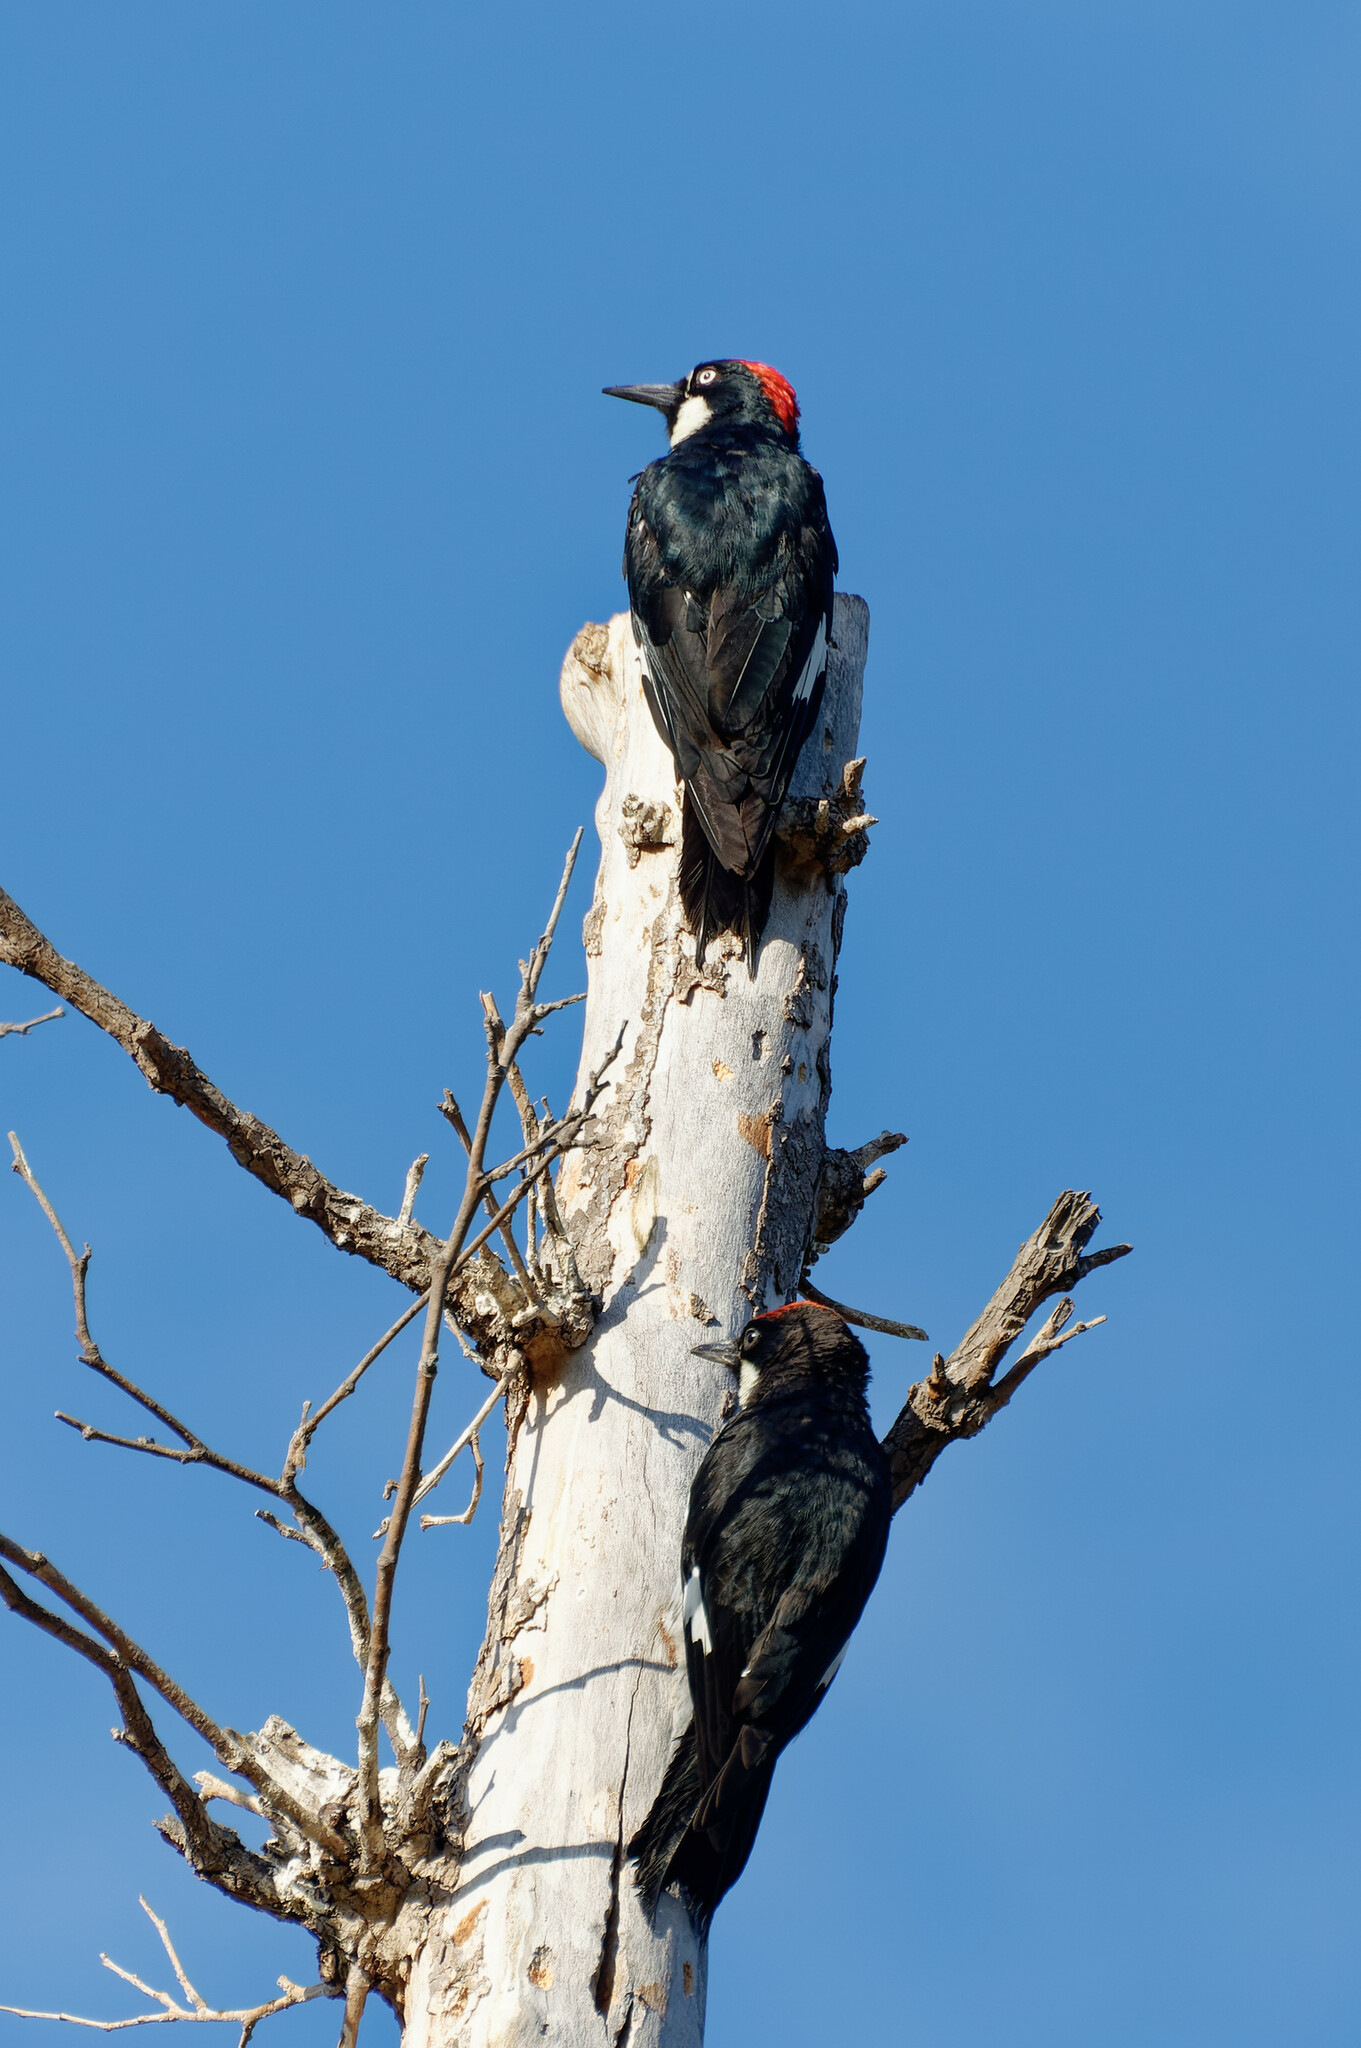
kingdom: Animalia
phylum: Chordata
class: Aves
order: Piciformes
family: Picidae
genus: Melanerpes
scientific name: Melanerpes formicivorus
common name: Acorn woodpecker
